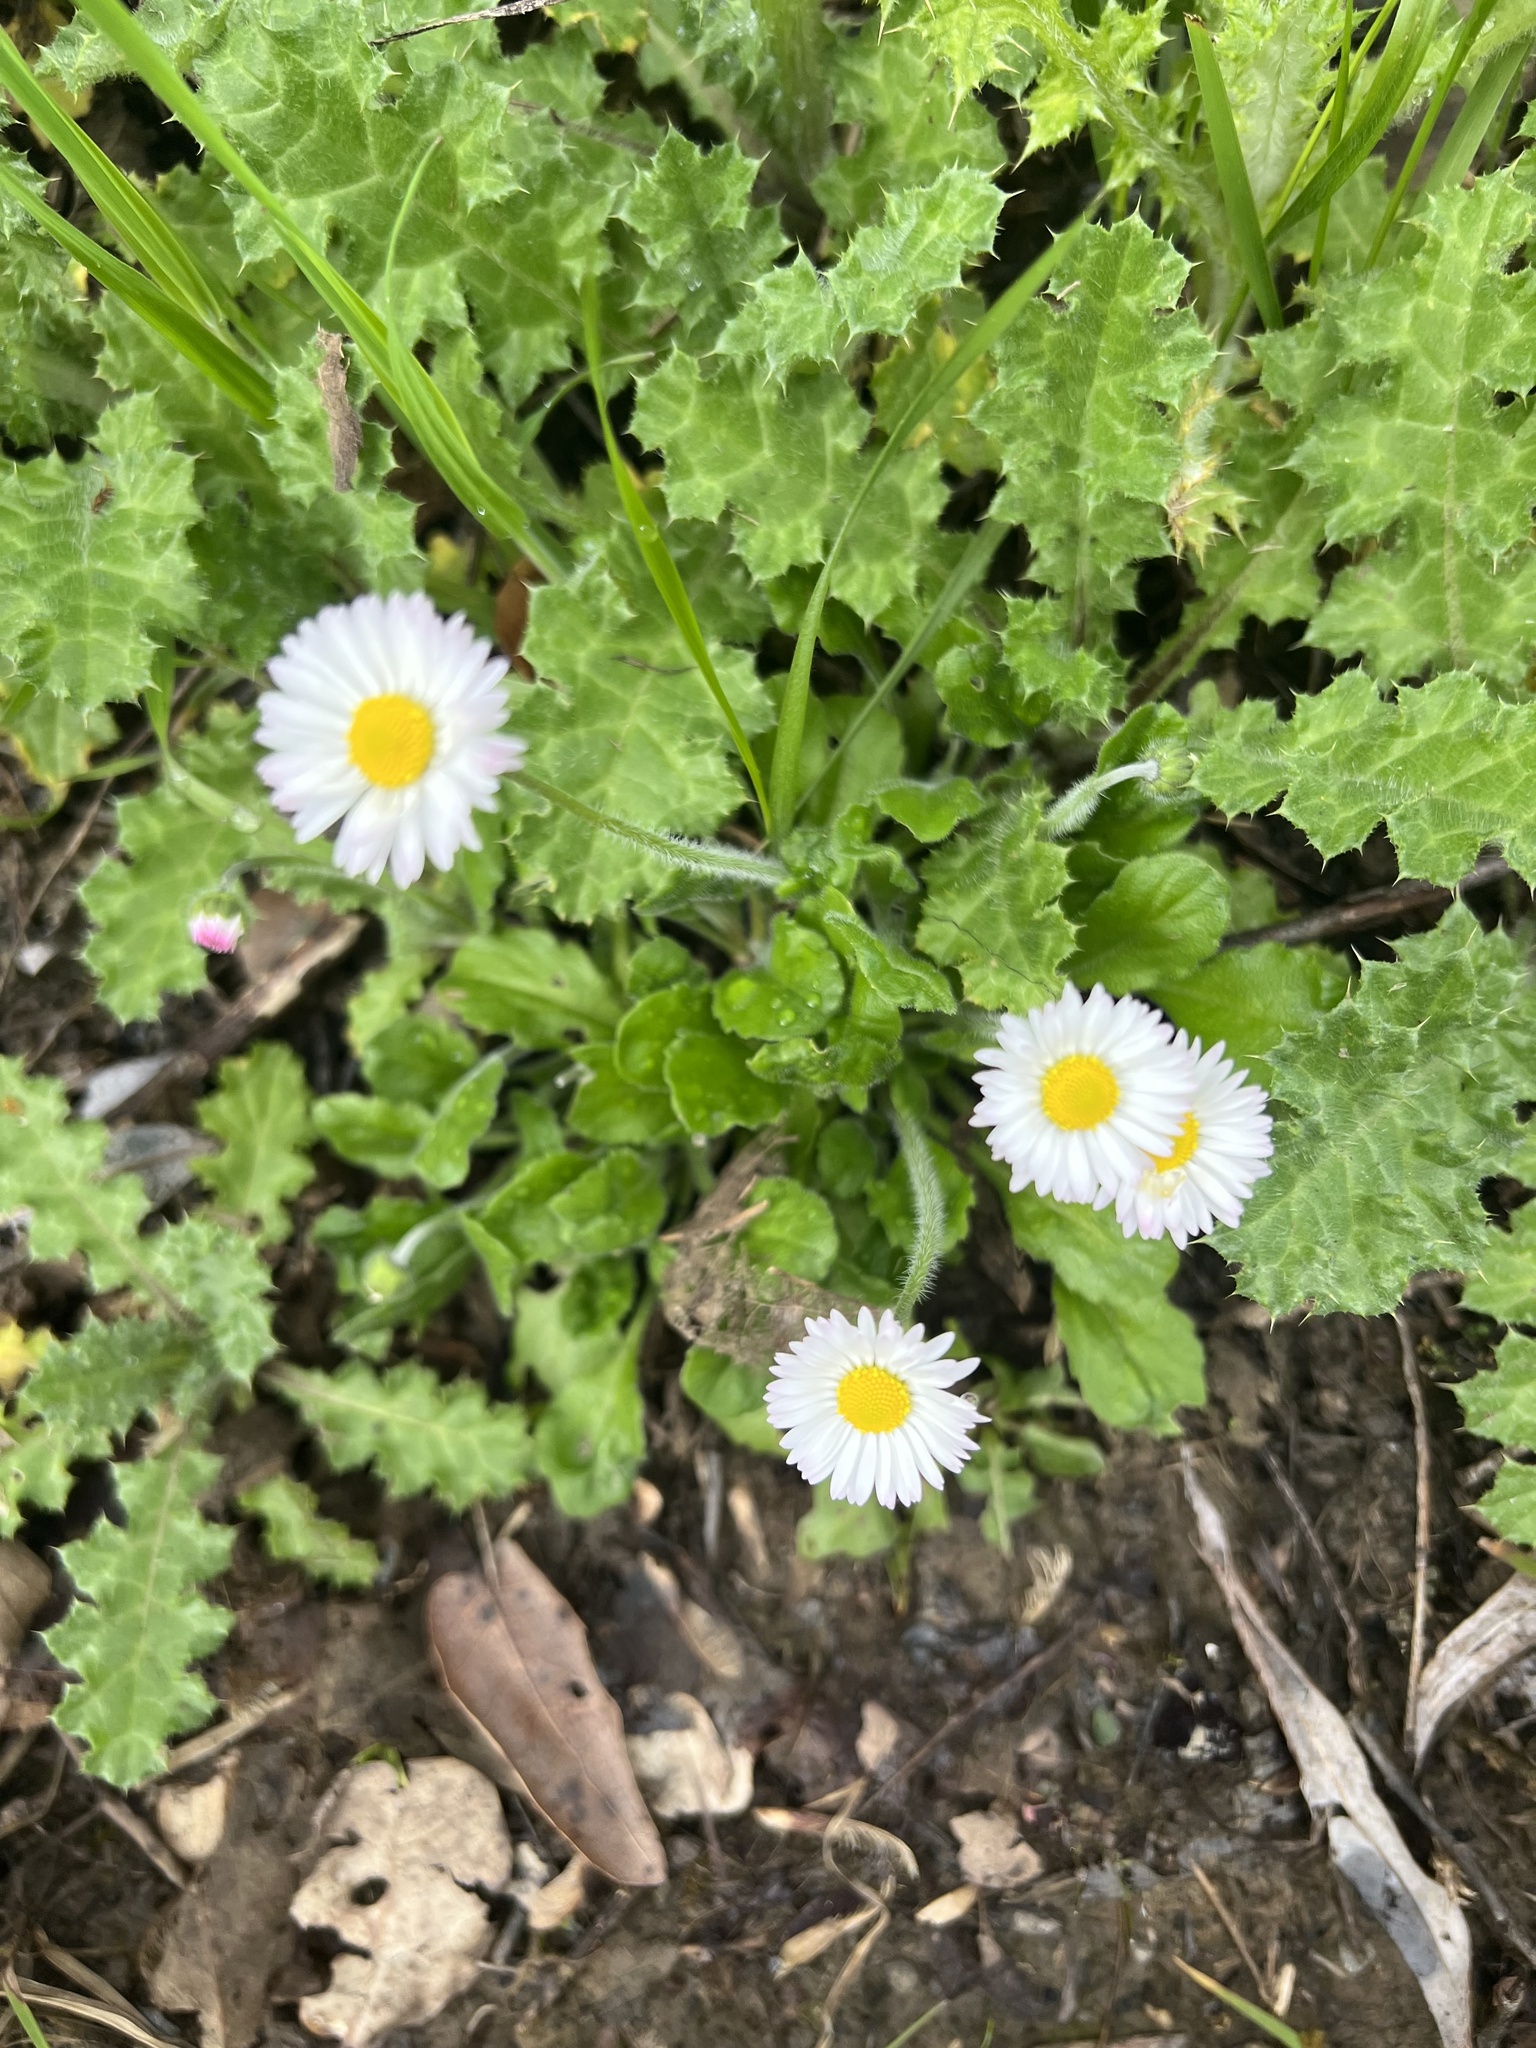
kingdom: Plantae
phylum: Tracheophyta
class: Magnoliopsida
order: Asterales
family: Asteraceae
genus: Bellis
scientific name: Bellis perennis
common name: Lawndaisy
